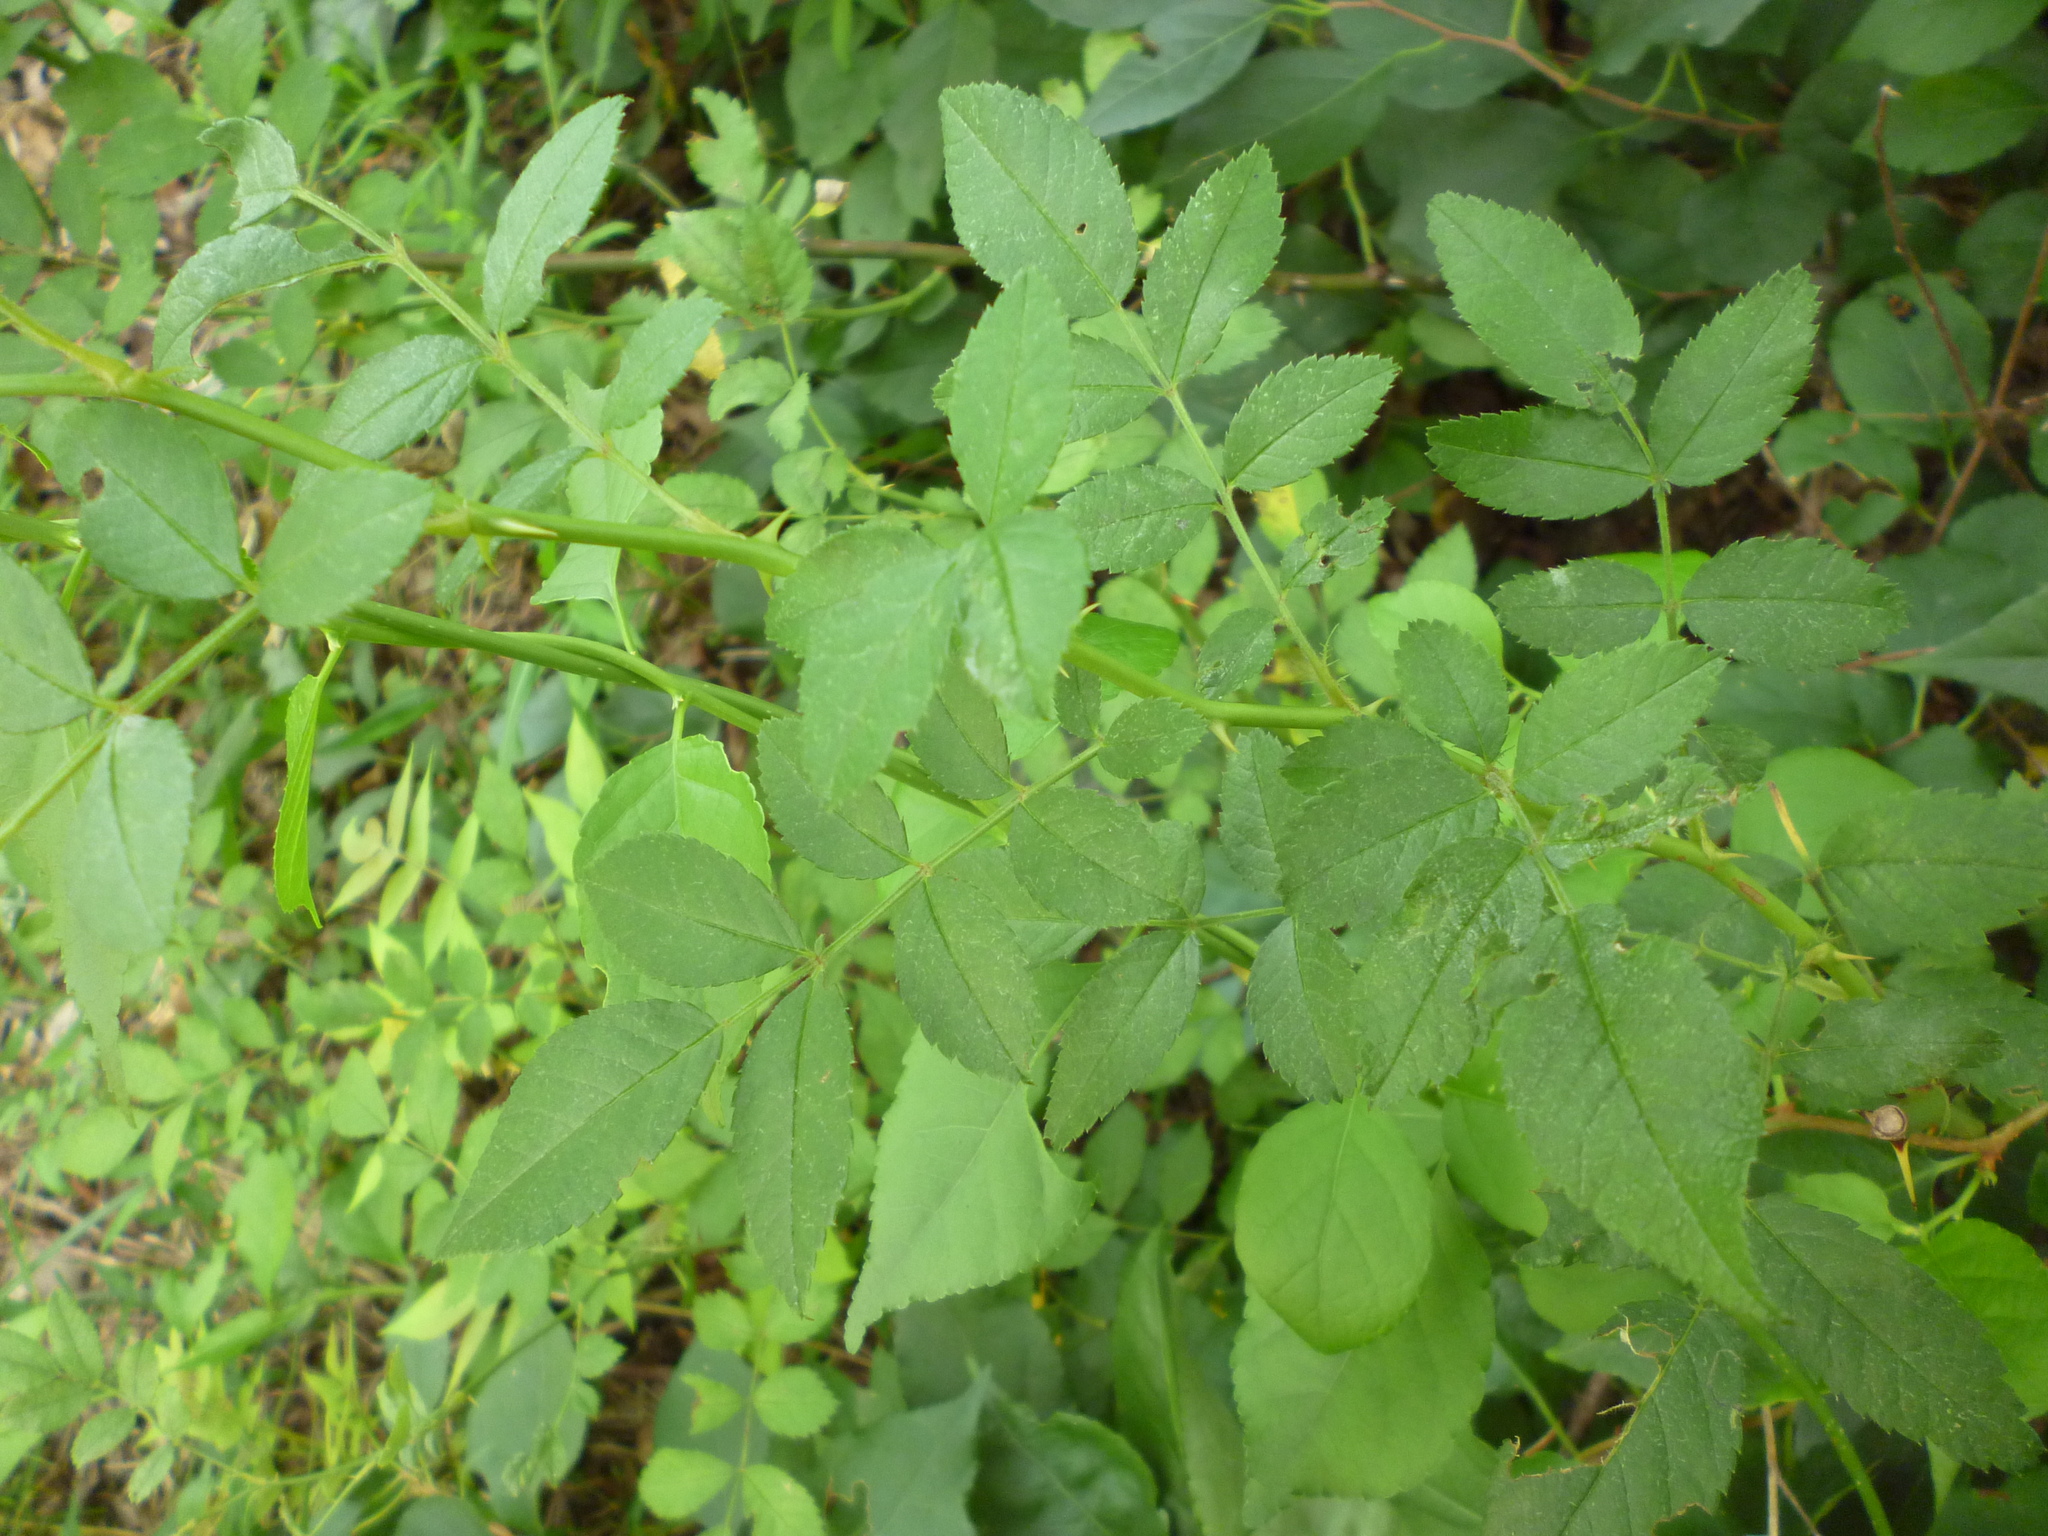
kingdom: Plantae
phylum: Tracheophyta
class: Magnoliopsida
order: Rosales
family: Rosaceae
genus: Rosa
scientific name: Rosa multiflora
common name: Multiflora rose
